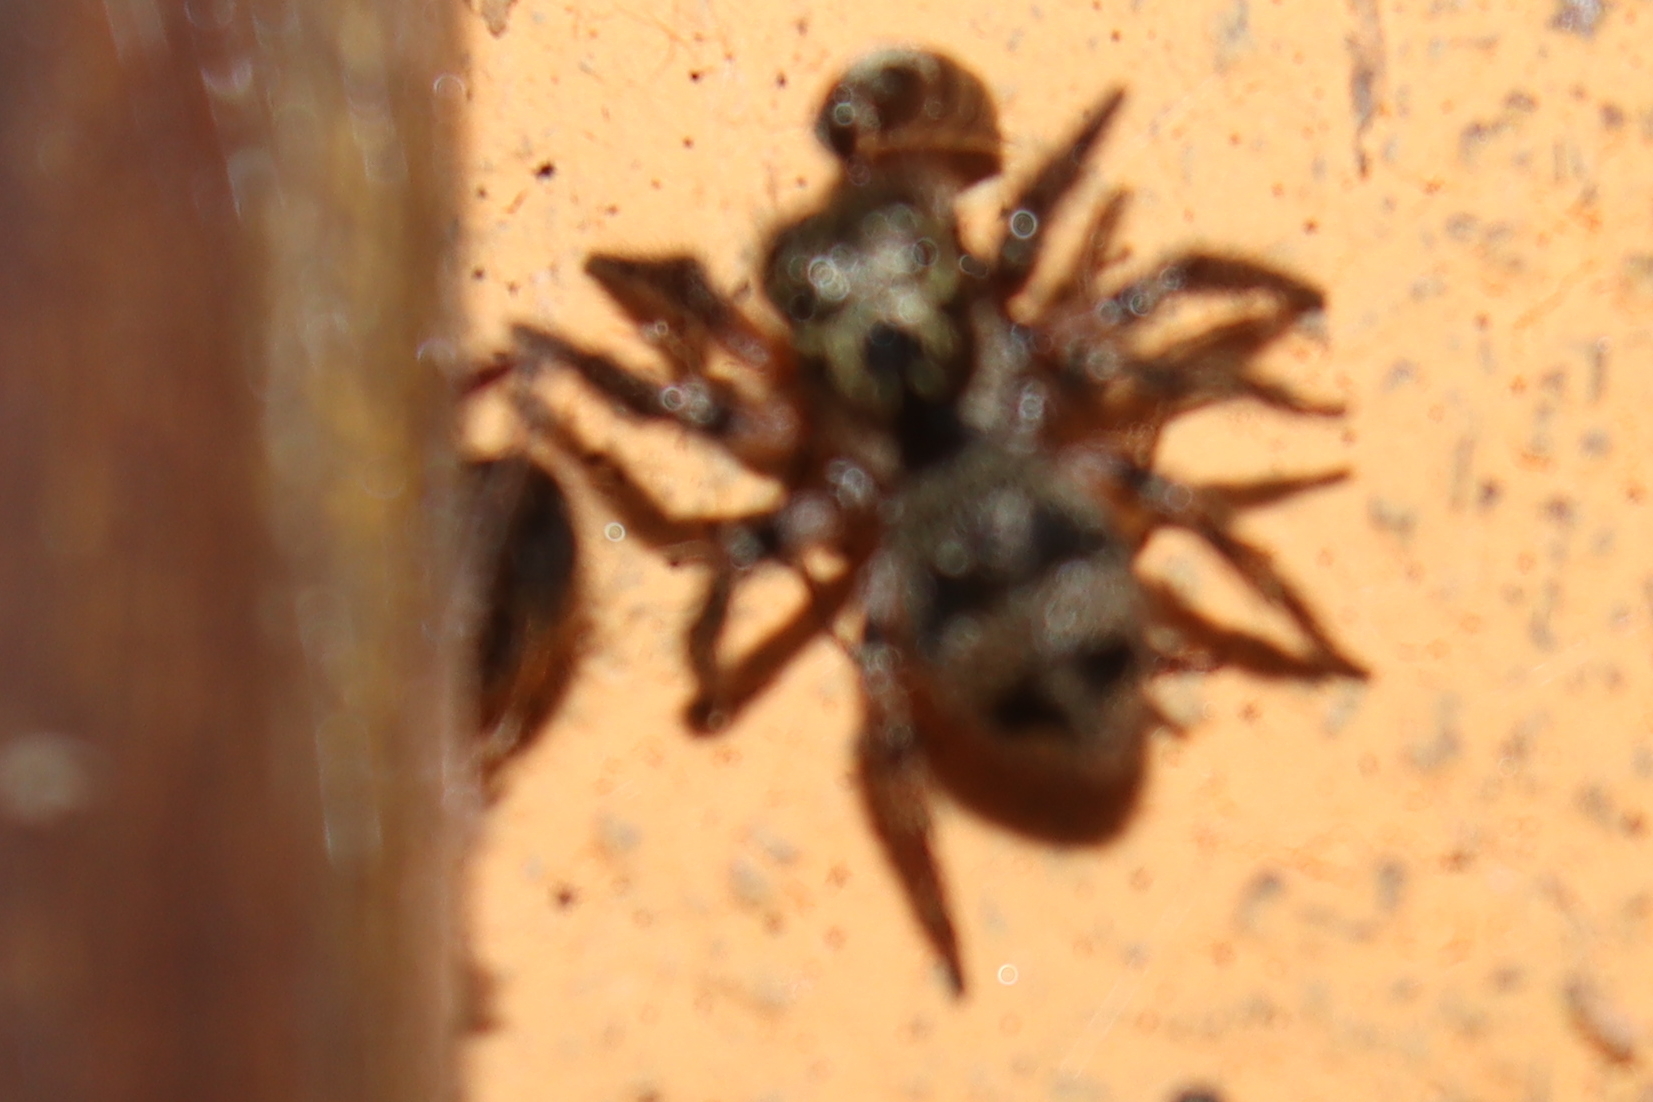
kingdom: Animalia
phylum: Arthropoda
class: Arachnida
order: Araneae
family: Salticidae
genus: Corythalia
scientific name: Corythalia conferta
